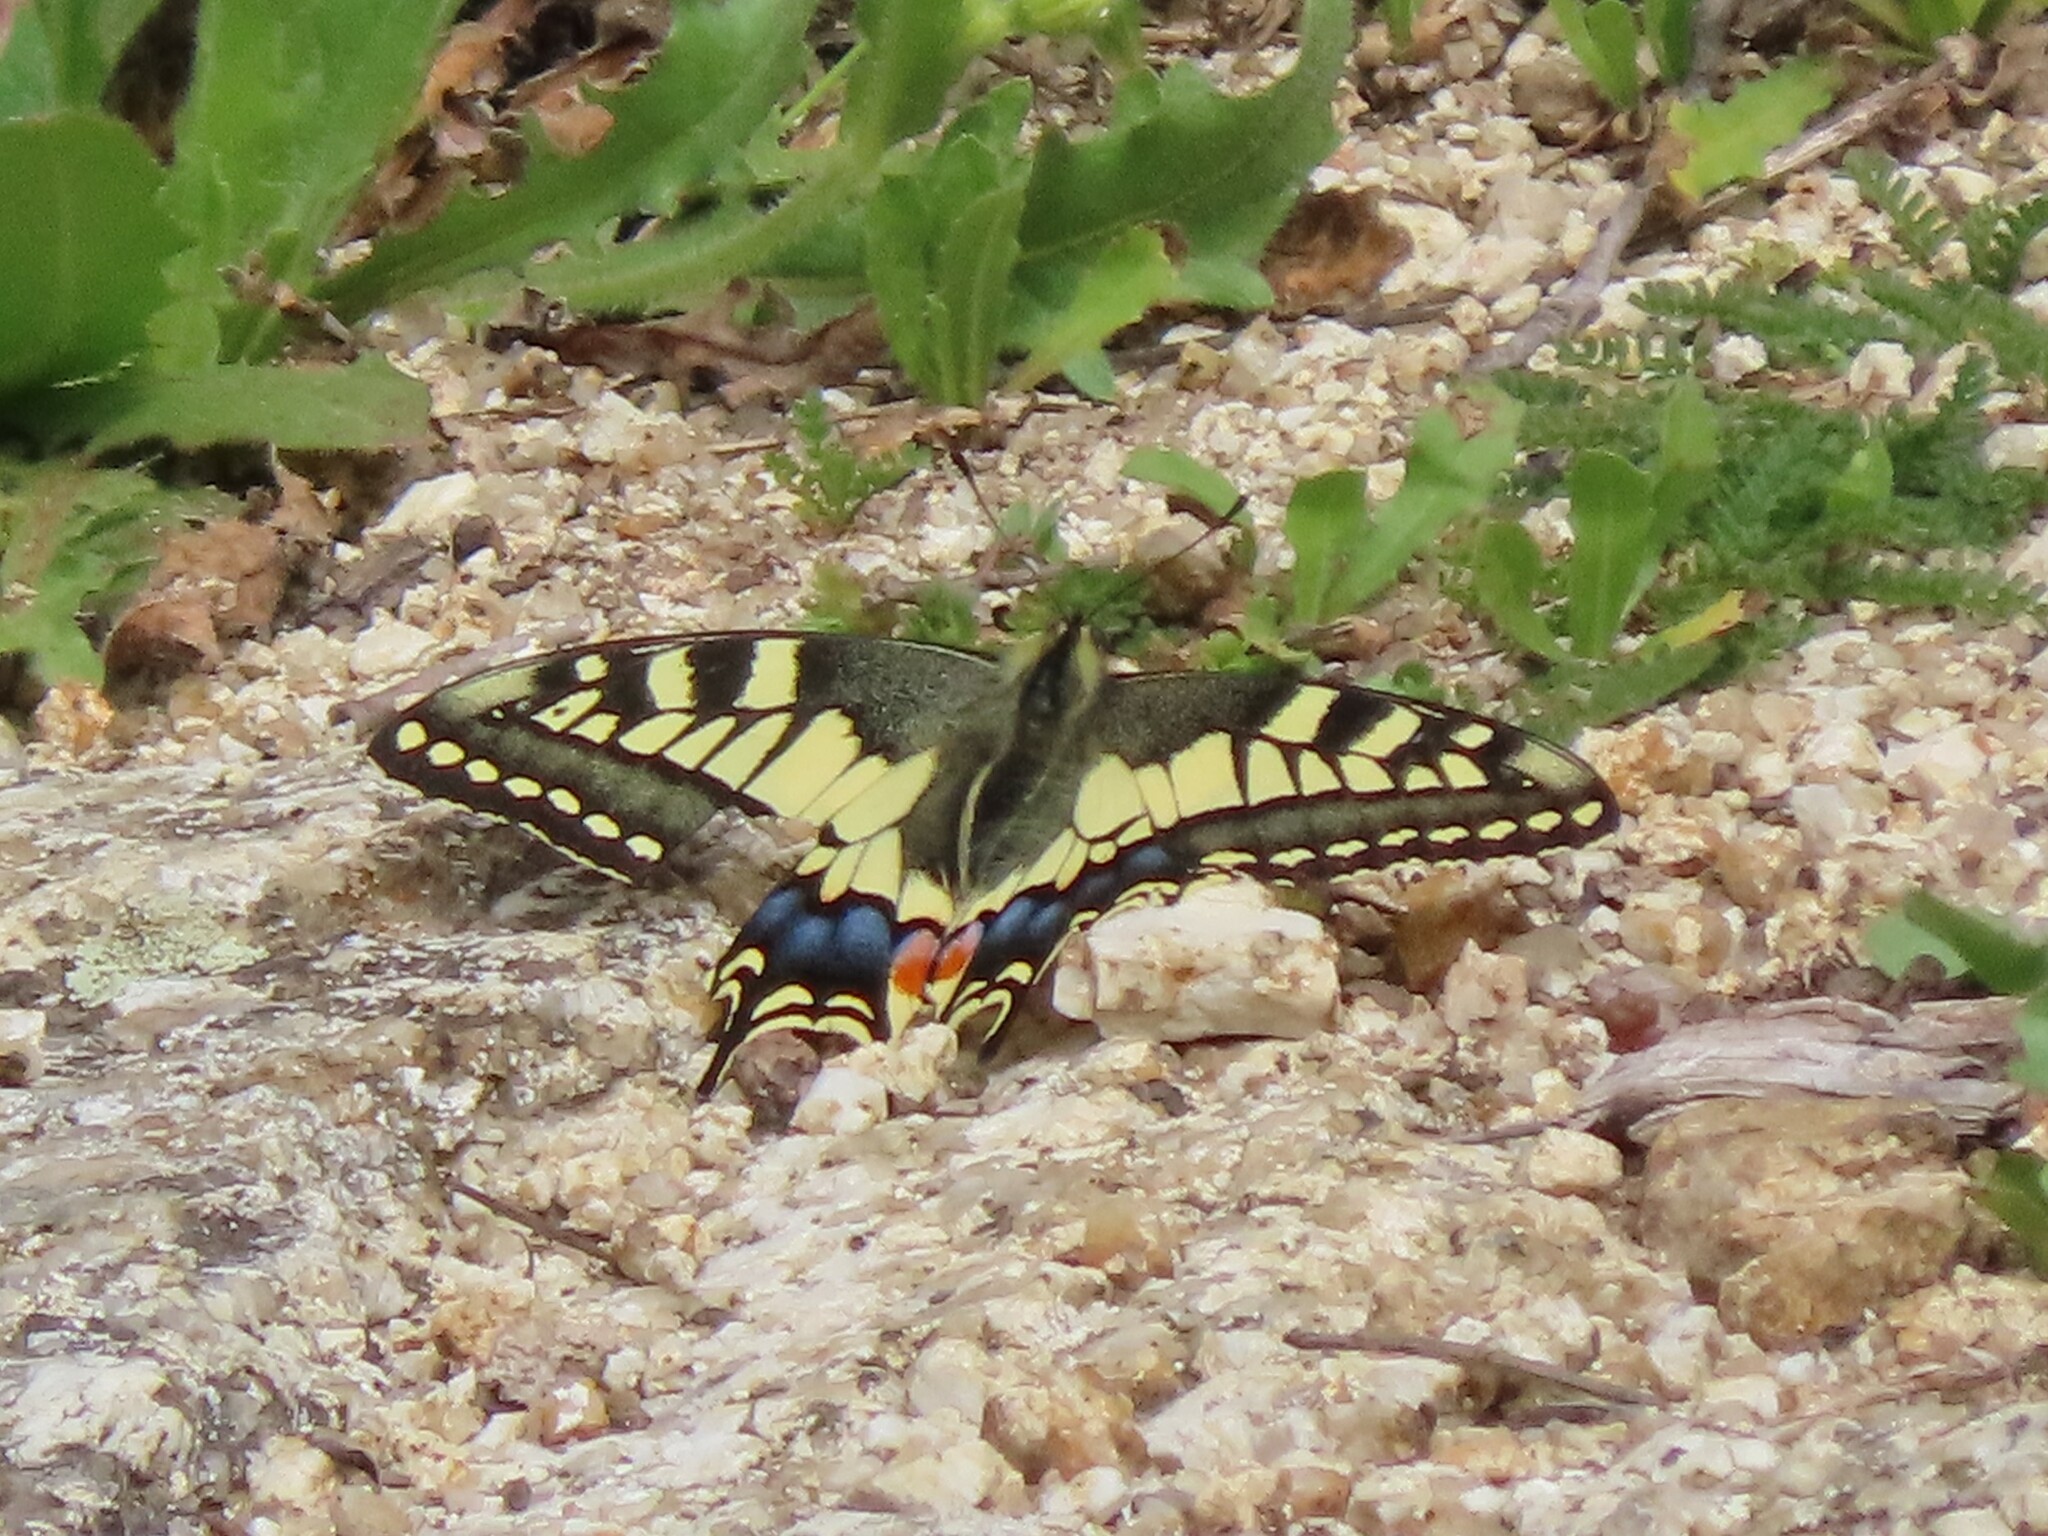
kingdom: Animalia
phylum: Arthropoda
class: Insecta
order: Lepidoptera
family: Papilionidae
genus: Papilio
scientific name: Papilio machaon
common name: Swallowtail
